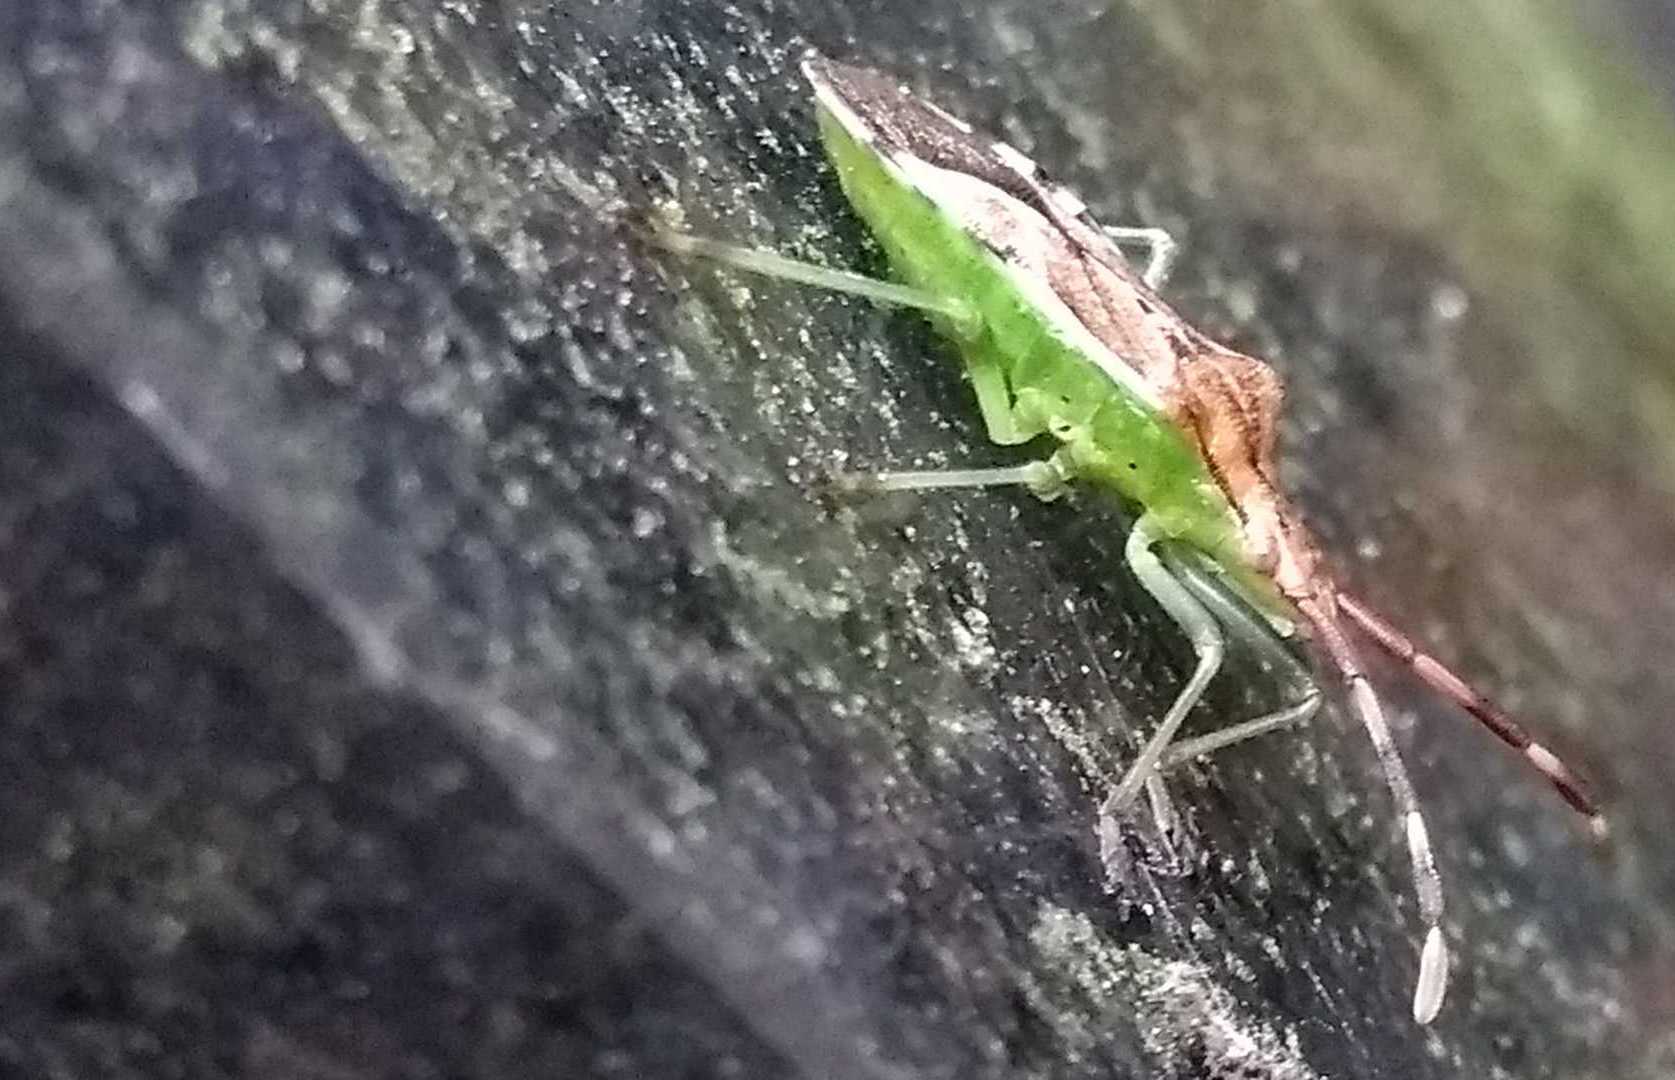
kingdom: Animalia
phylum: Arthropoda
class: Insecta
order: Hemiptera
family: Coreidae
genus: Gonocerus
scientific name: Gonocerus juniperi
